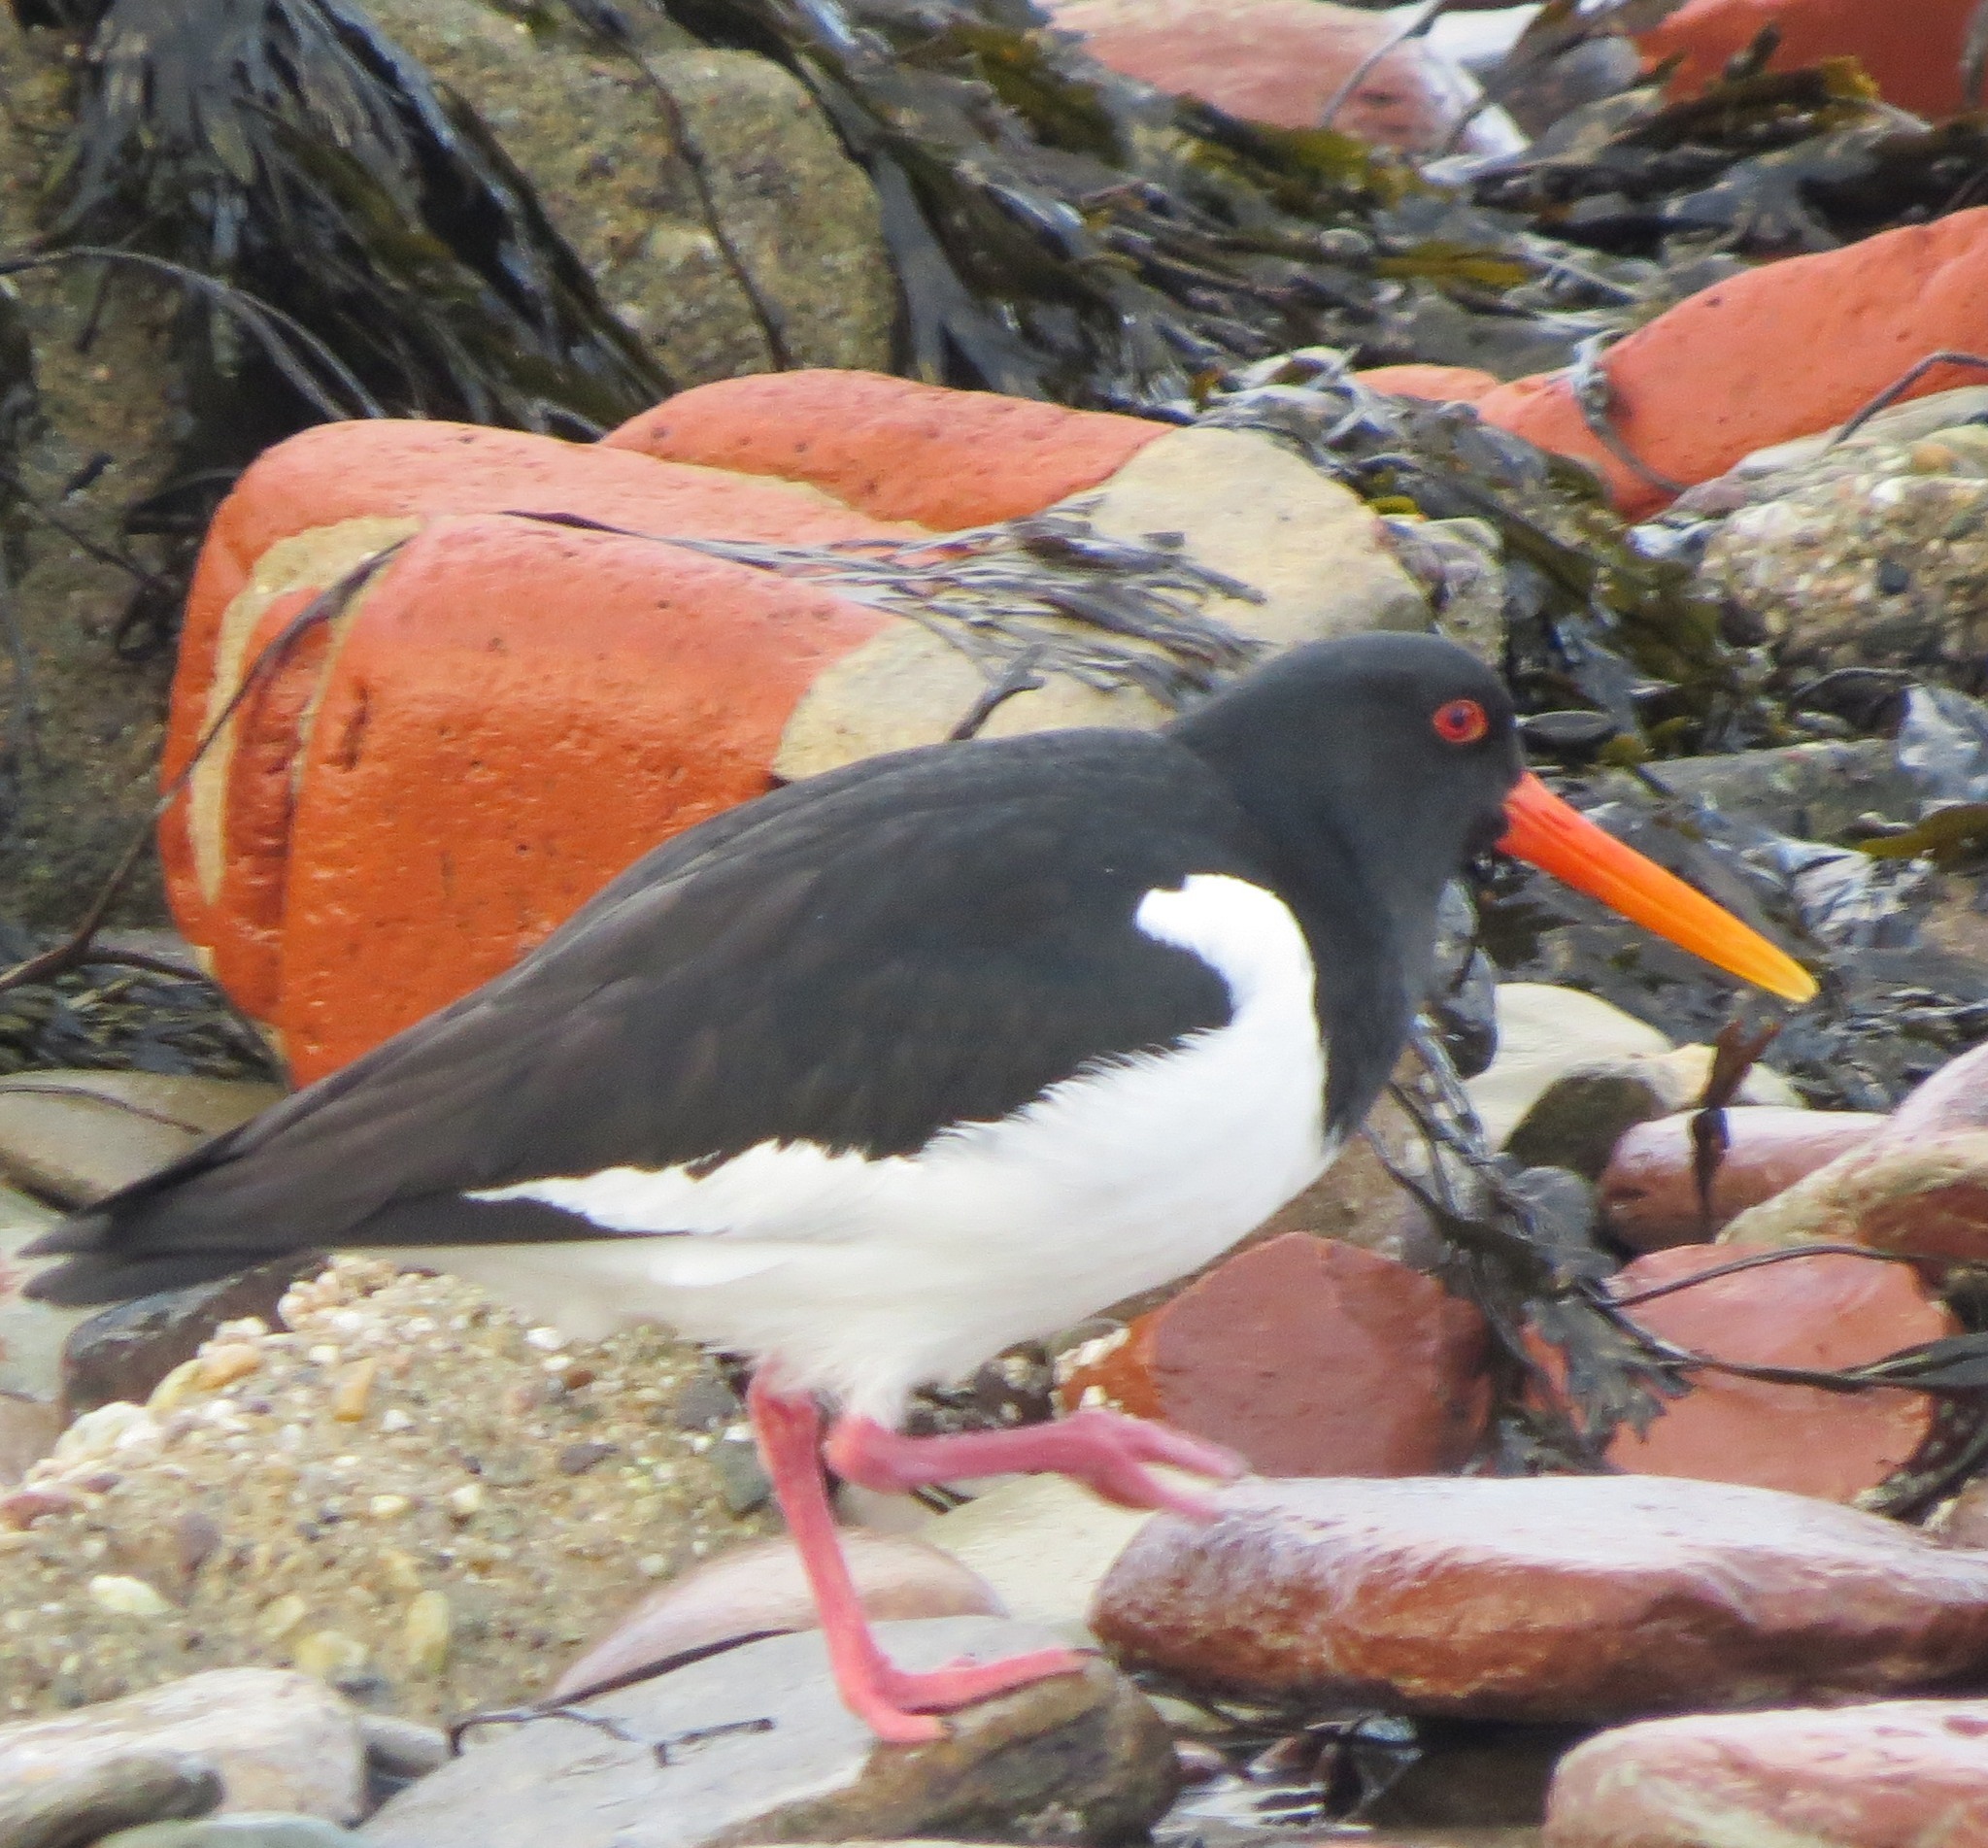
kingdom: Animalia
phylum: Chordata
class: Aves
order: Charadriiformes
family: Haematopodidae
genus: Haematopus
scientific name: Haematopus ostralegus
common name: Eurasian oystercatcher
